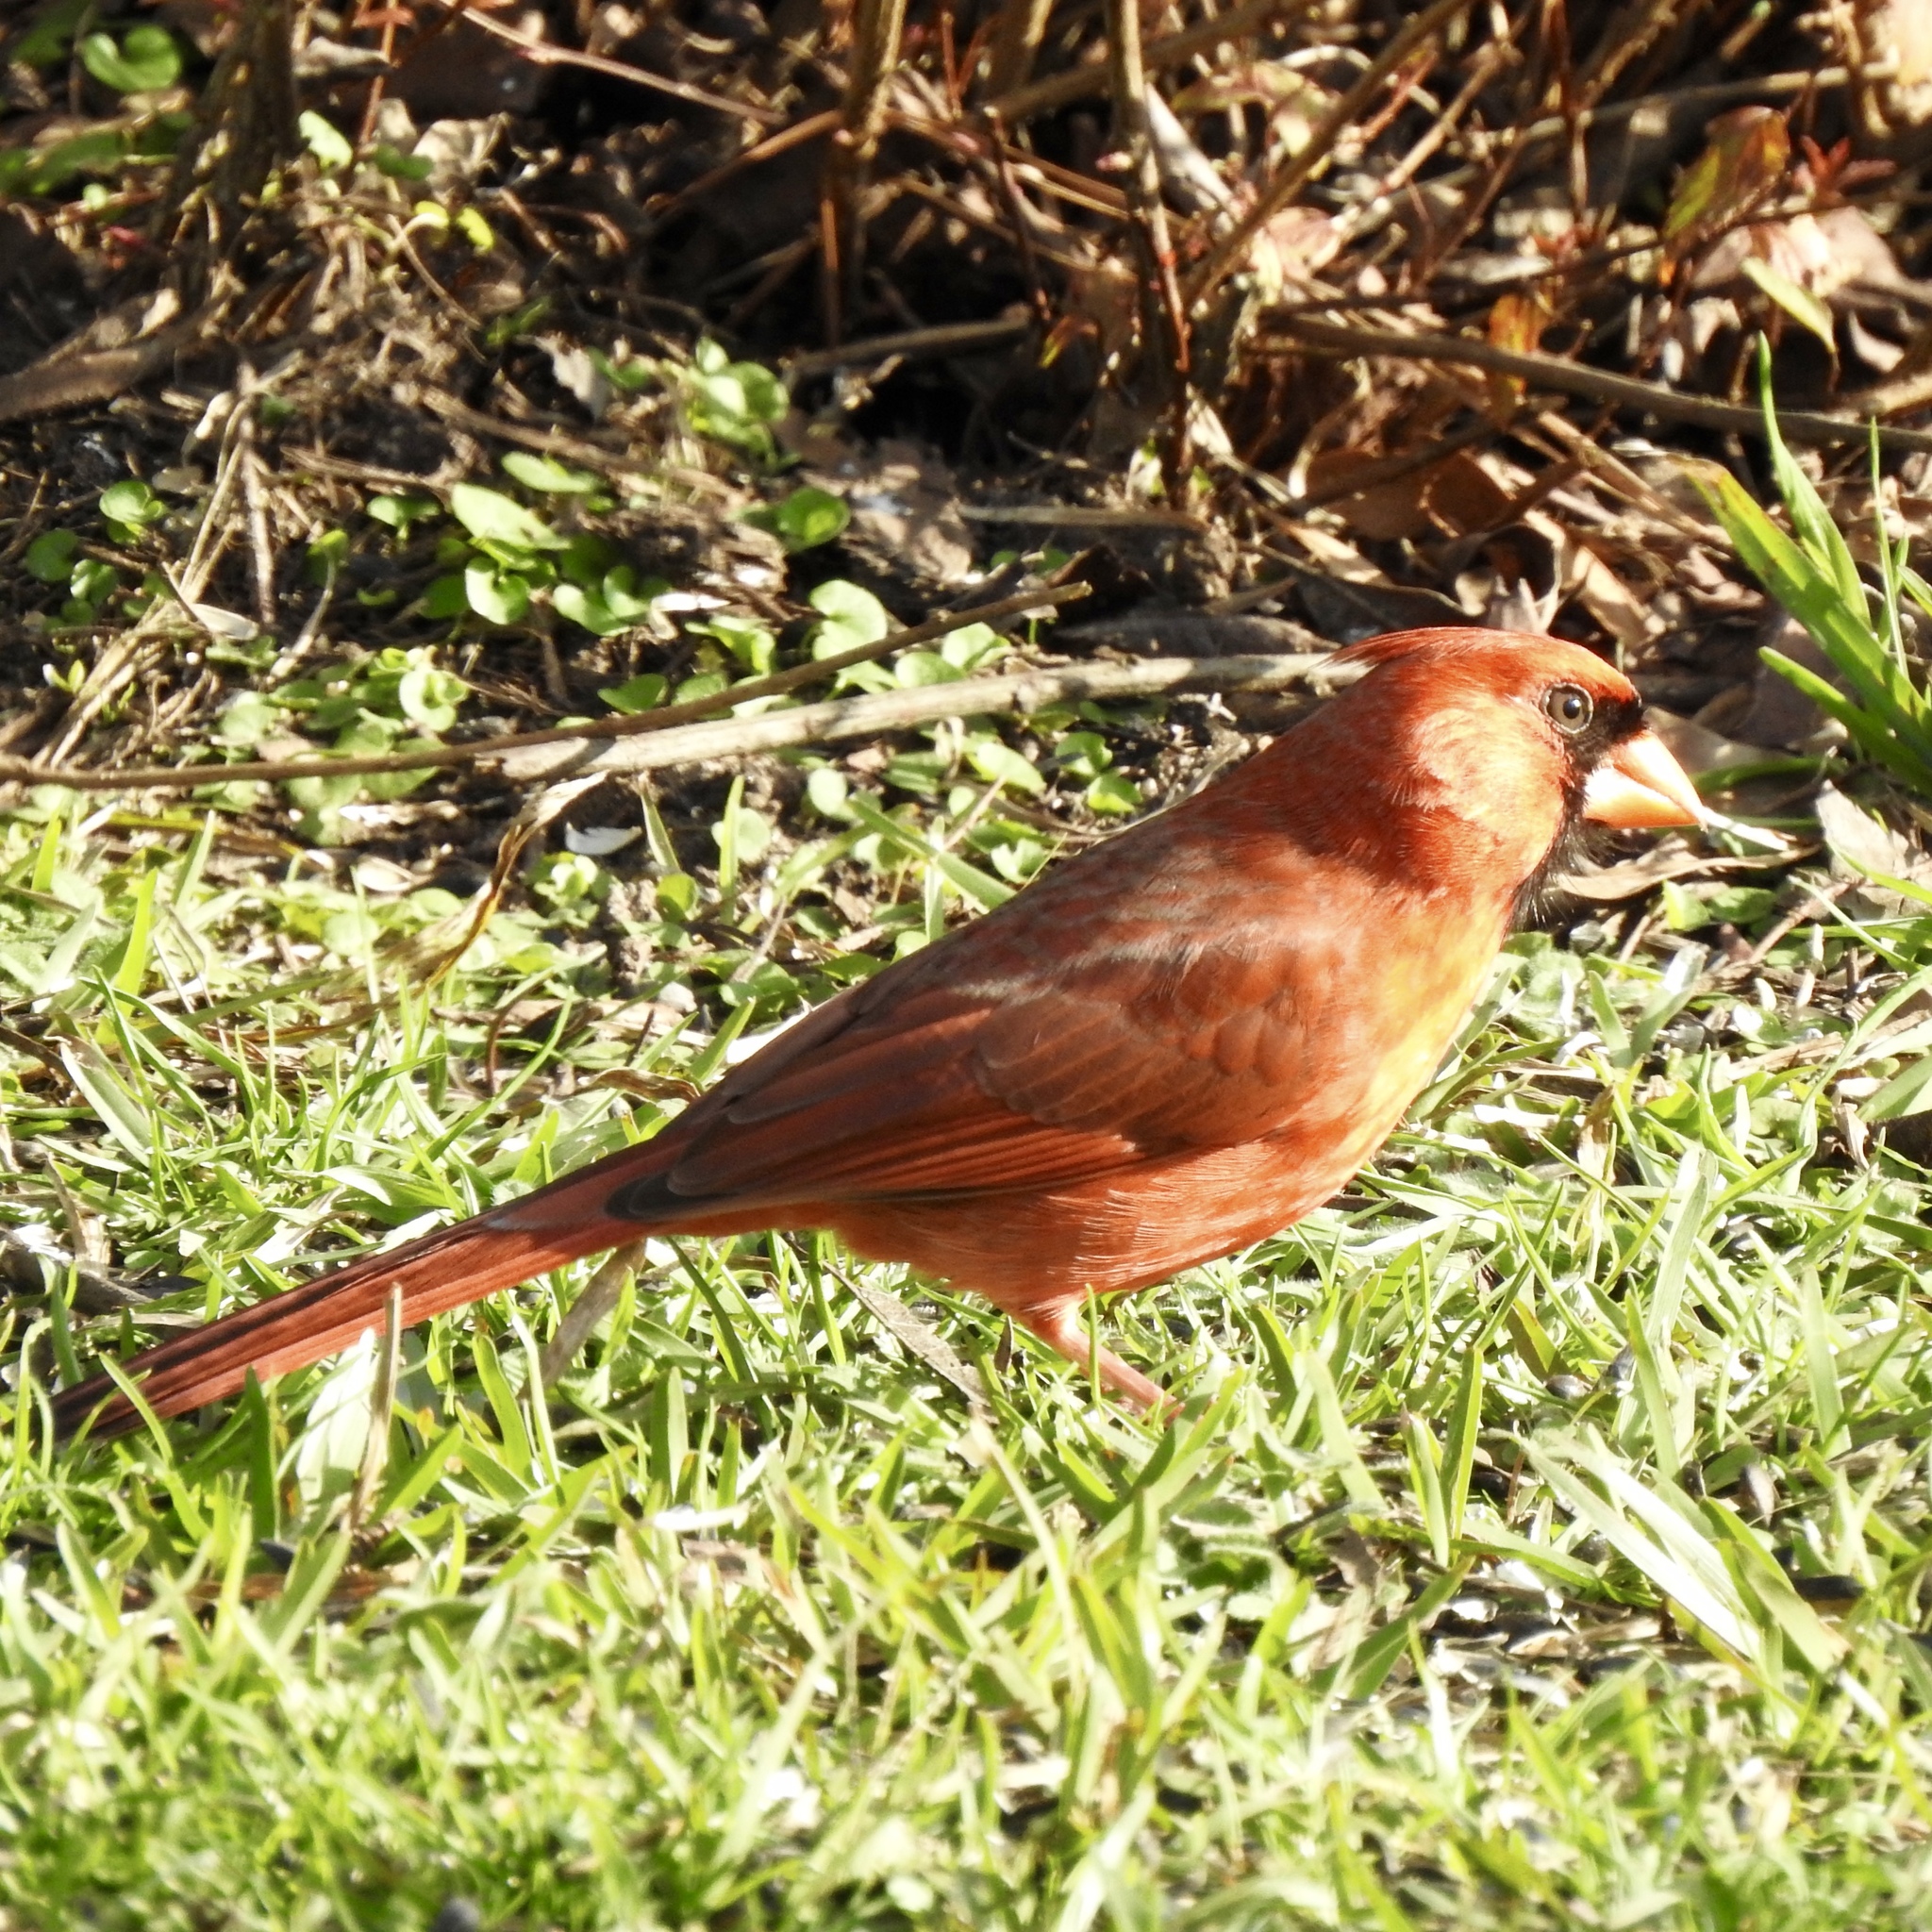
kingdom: Animalia
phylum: Chordata
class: Aves
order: Passeriformes
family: Cardinalidae
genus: Cardinalis
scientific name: Cardinalis cardinalis
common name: Northern cardinal
